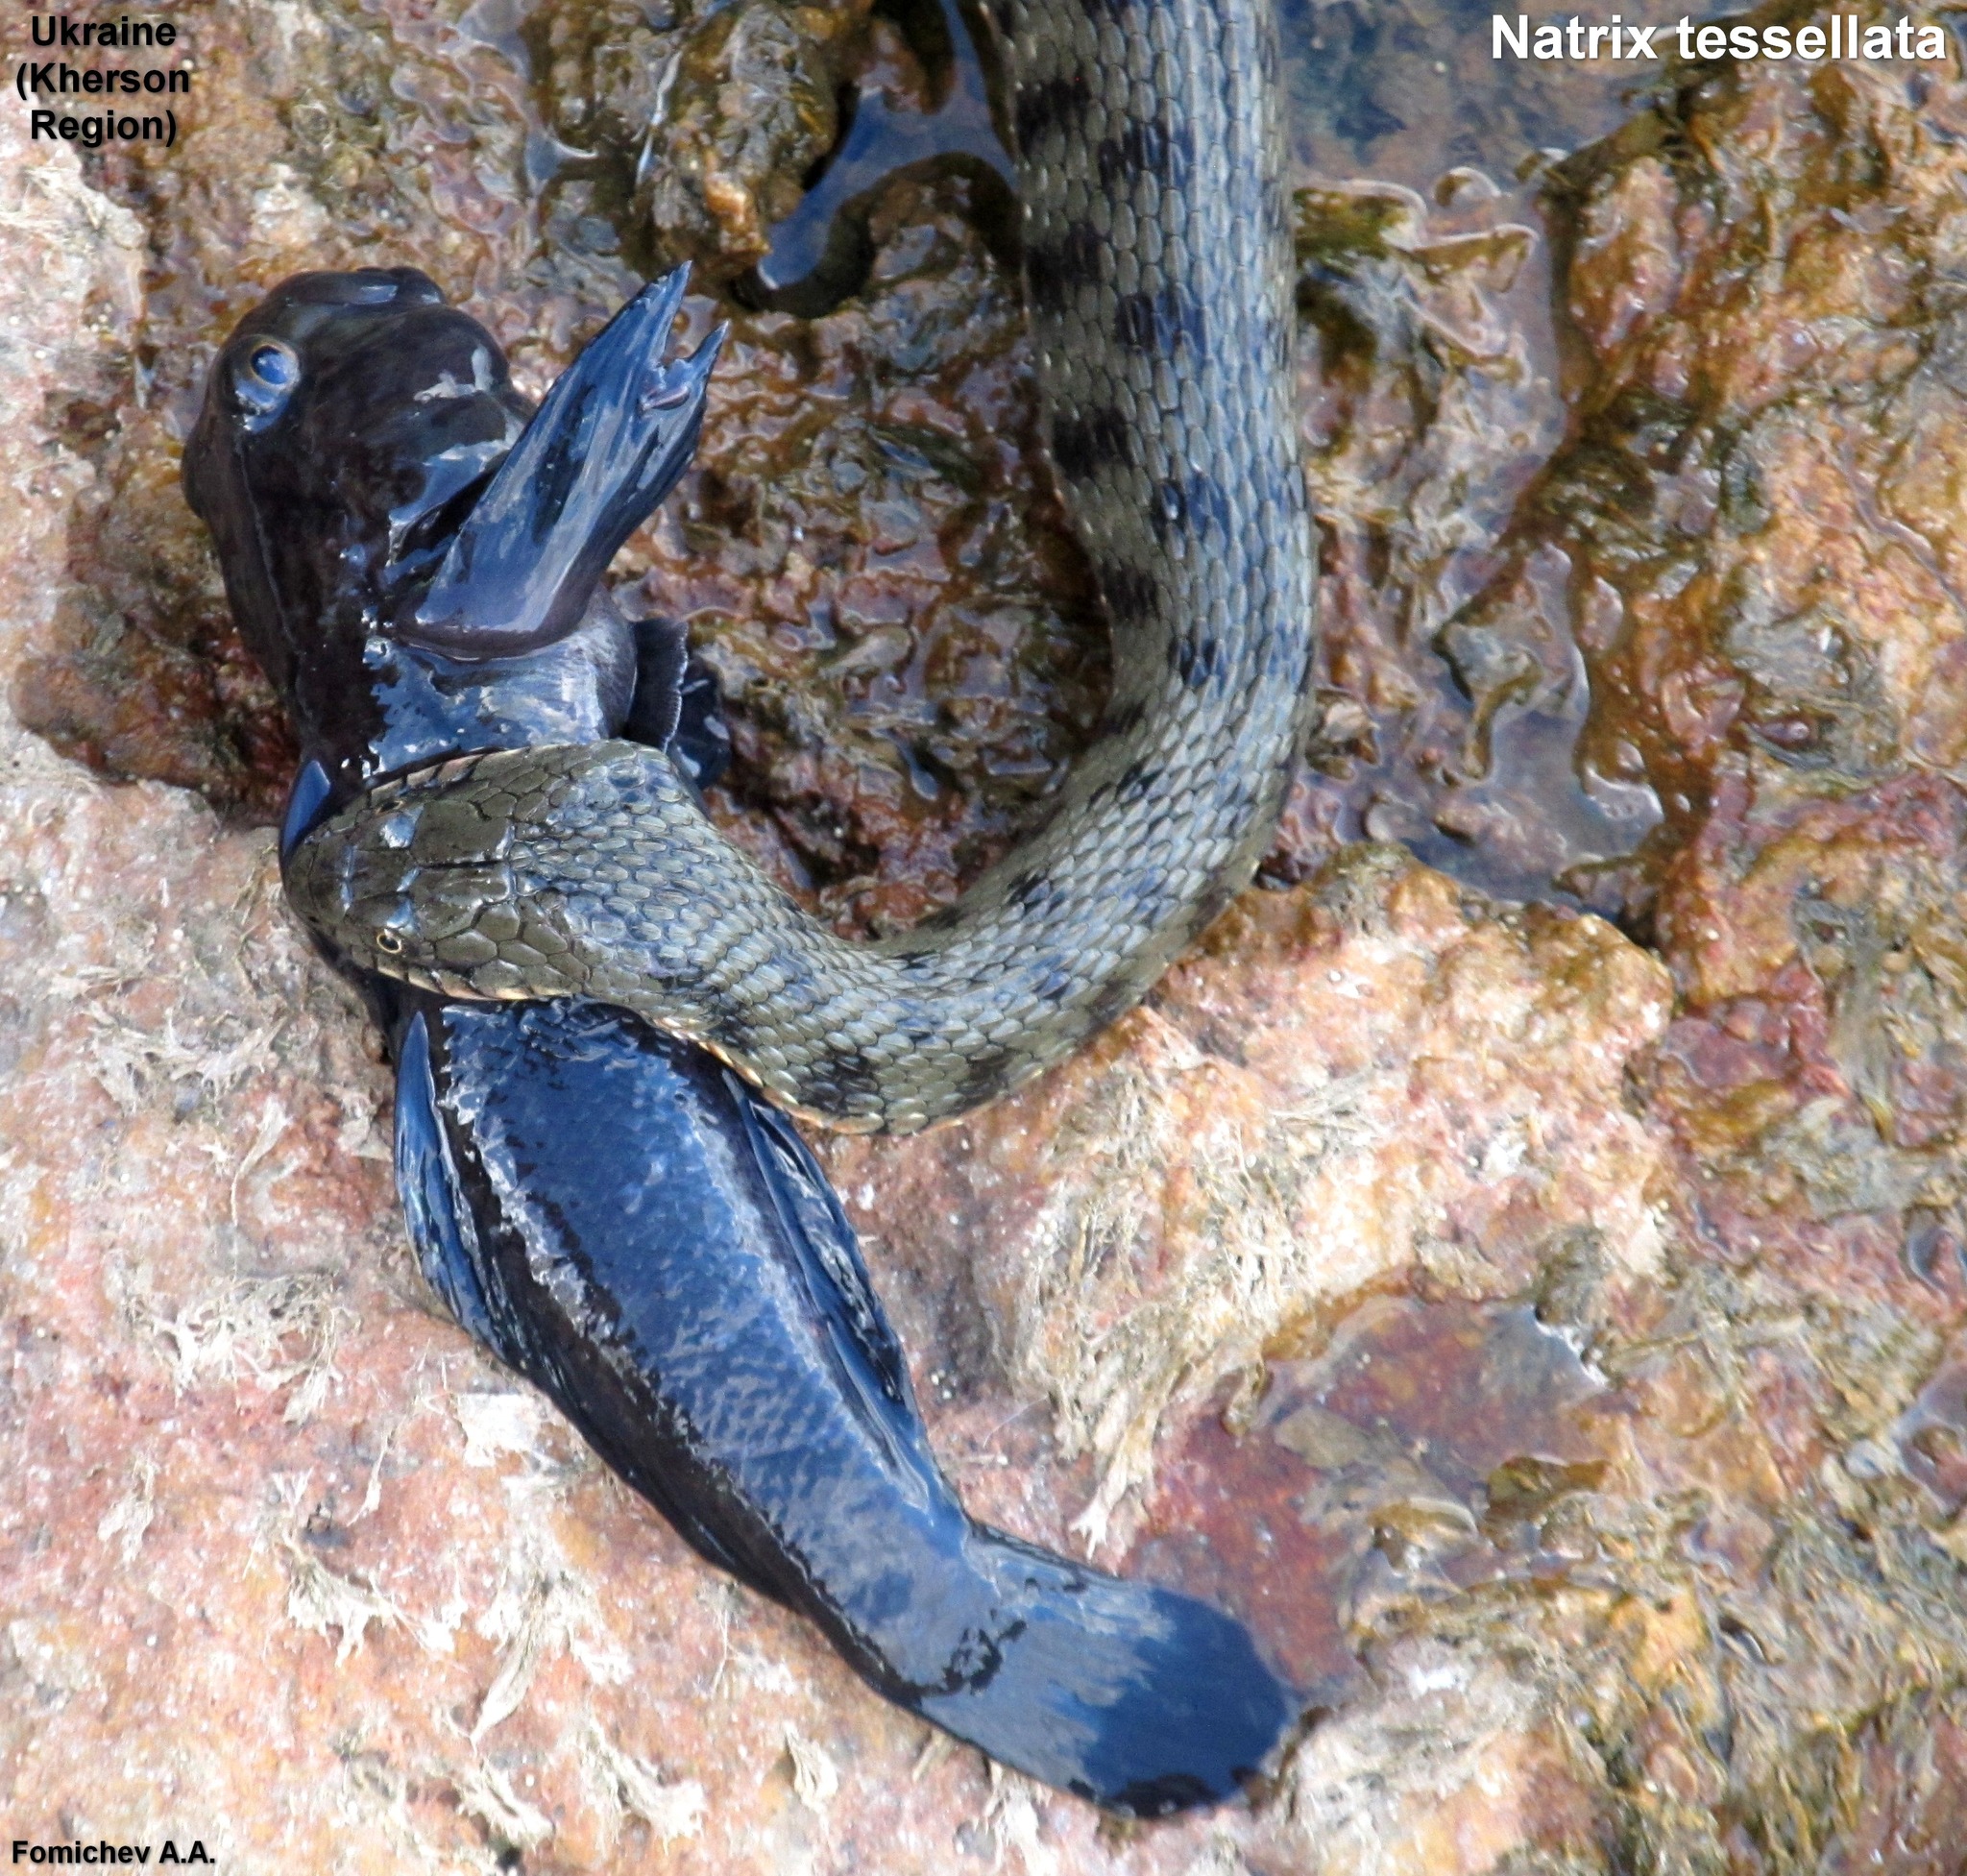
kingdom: Animalia
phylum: Chordata
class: Squamata
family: Colubridae
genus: Natrix
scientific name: Natrix tessellata
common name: Dice snake
